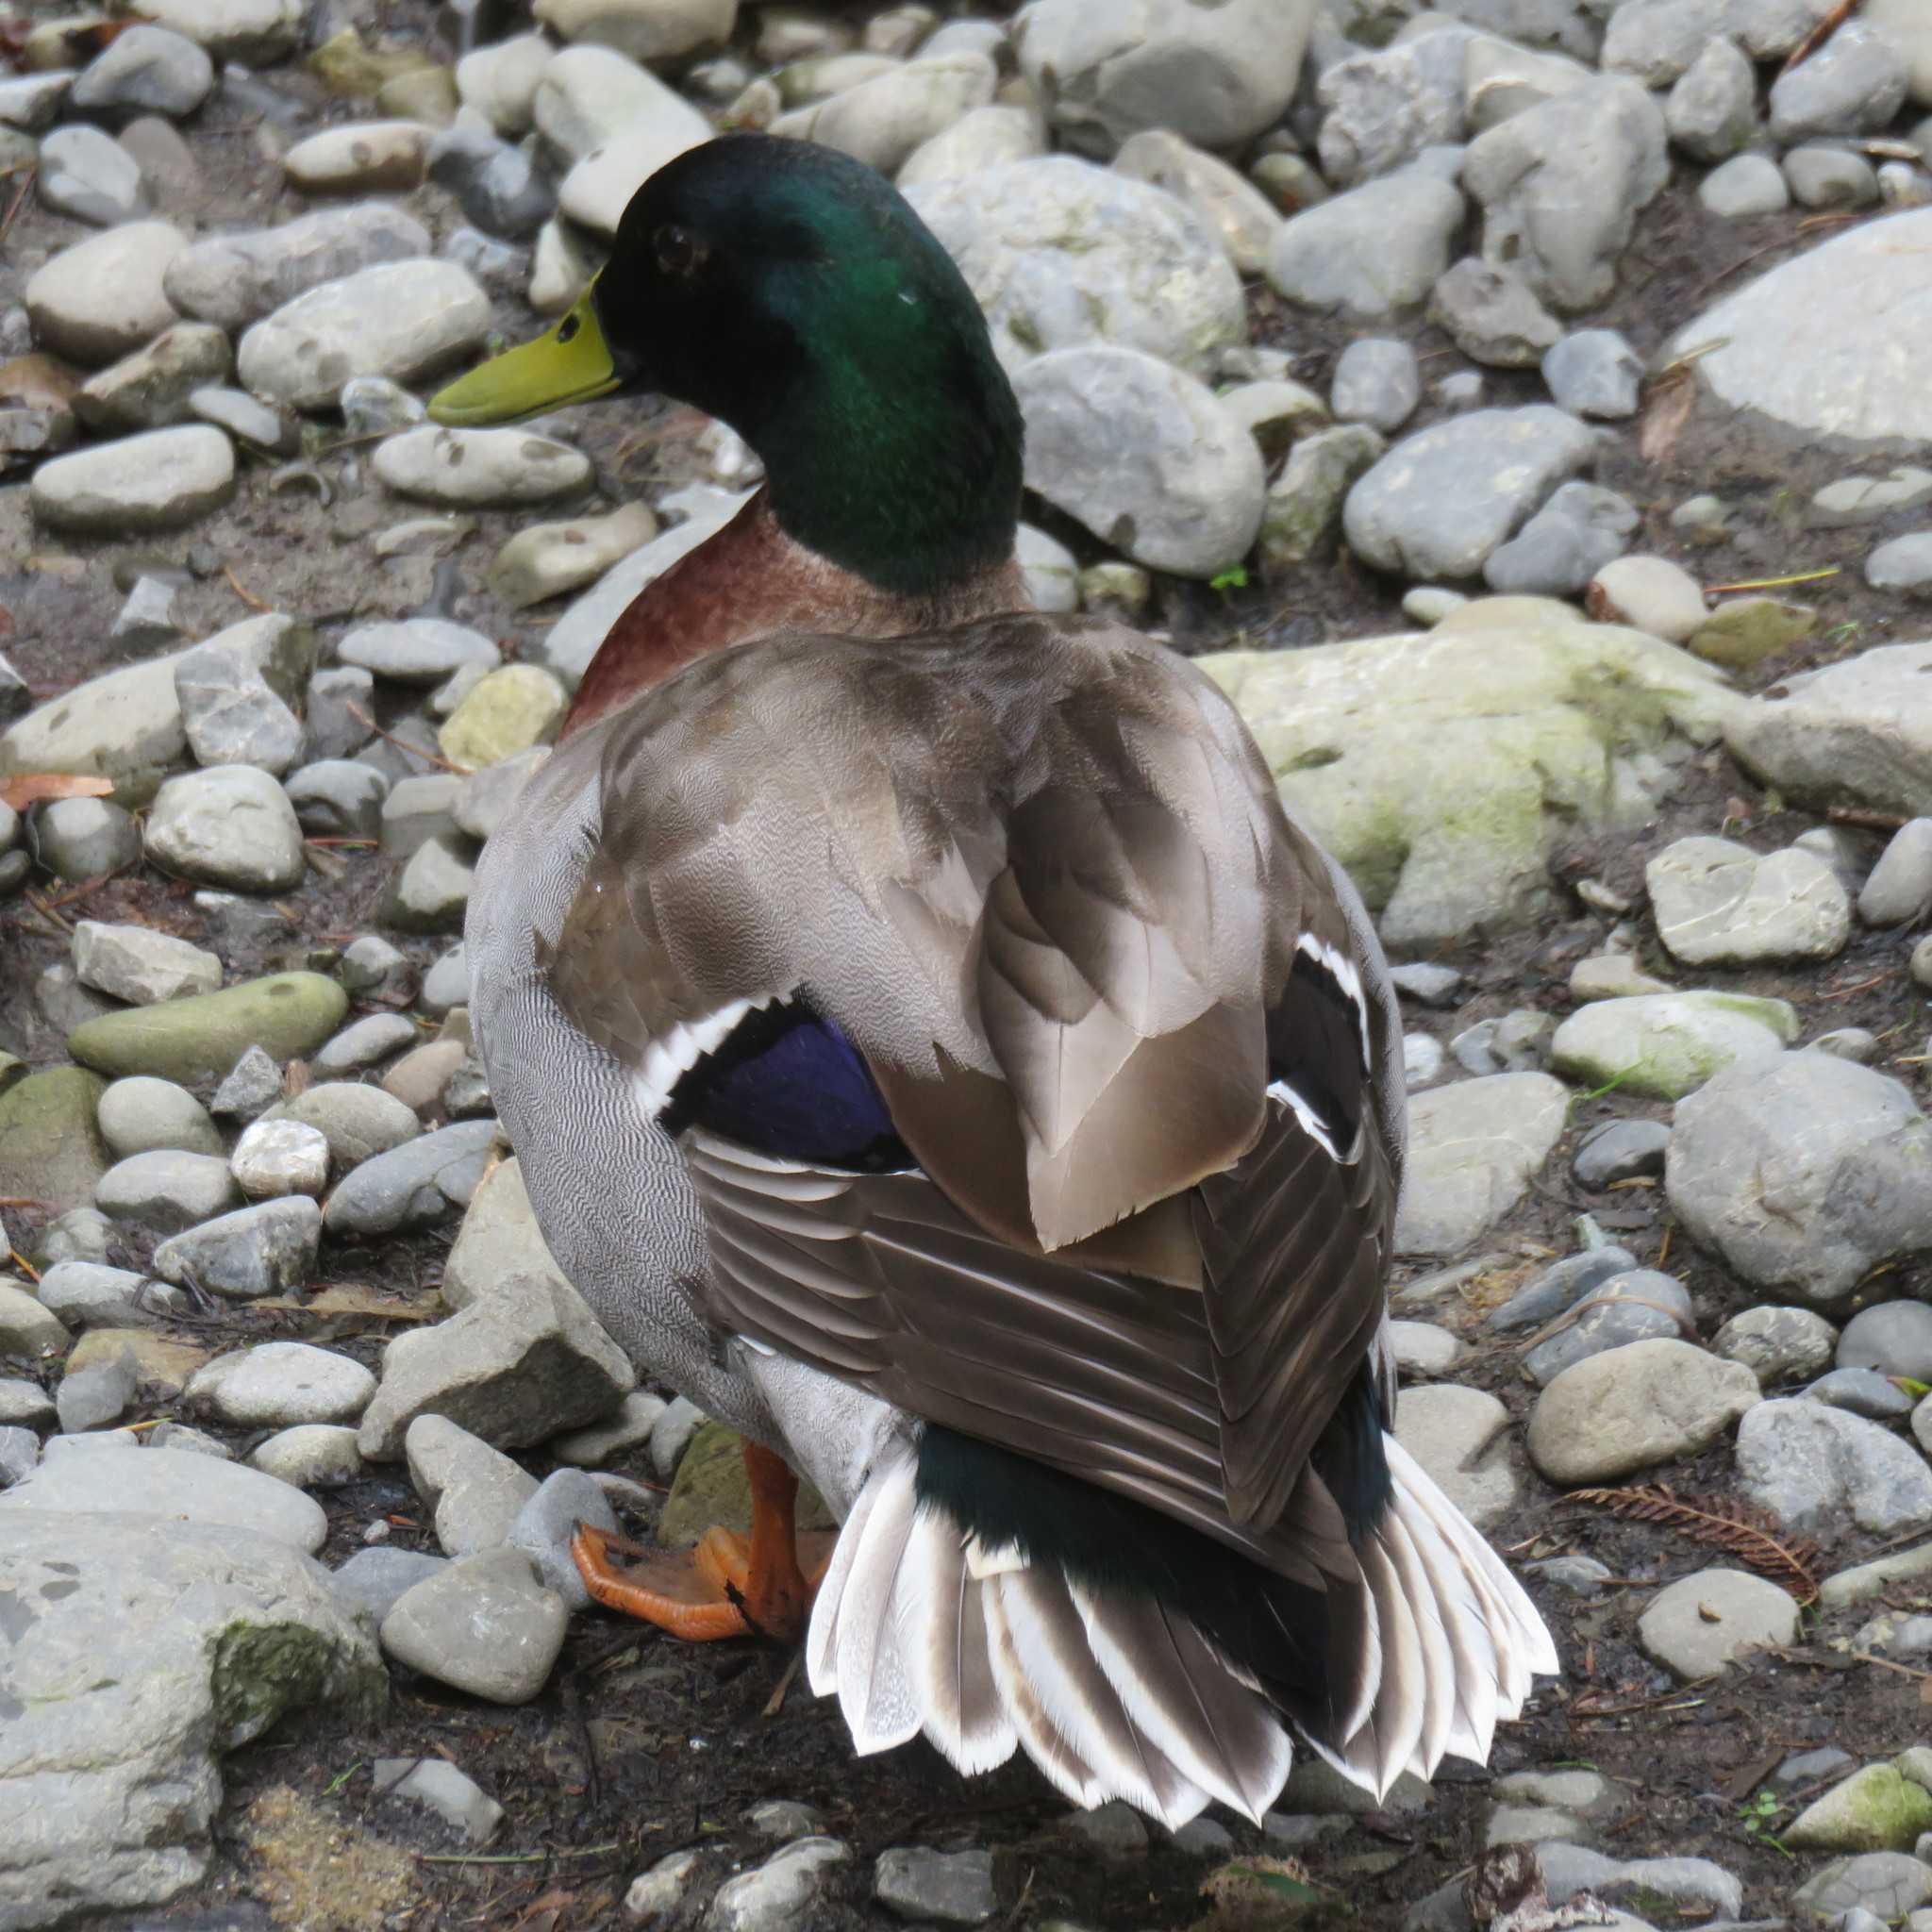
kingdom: Animalia
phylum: Chordata
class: Aves
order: Anseriformes
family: Anatidae
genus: Anas
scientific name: Anas platyrhynchos
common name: Mallard
